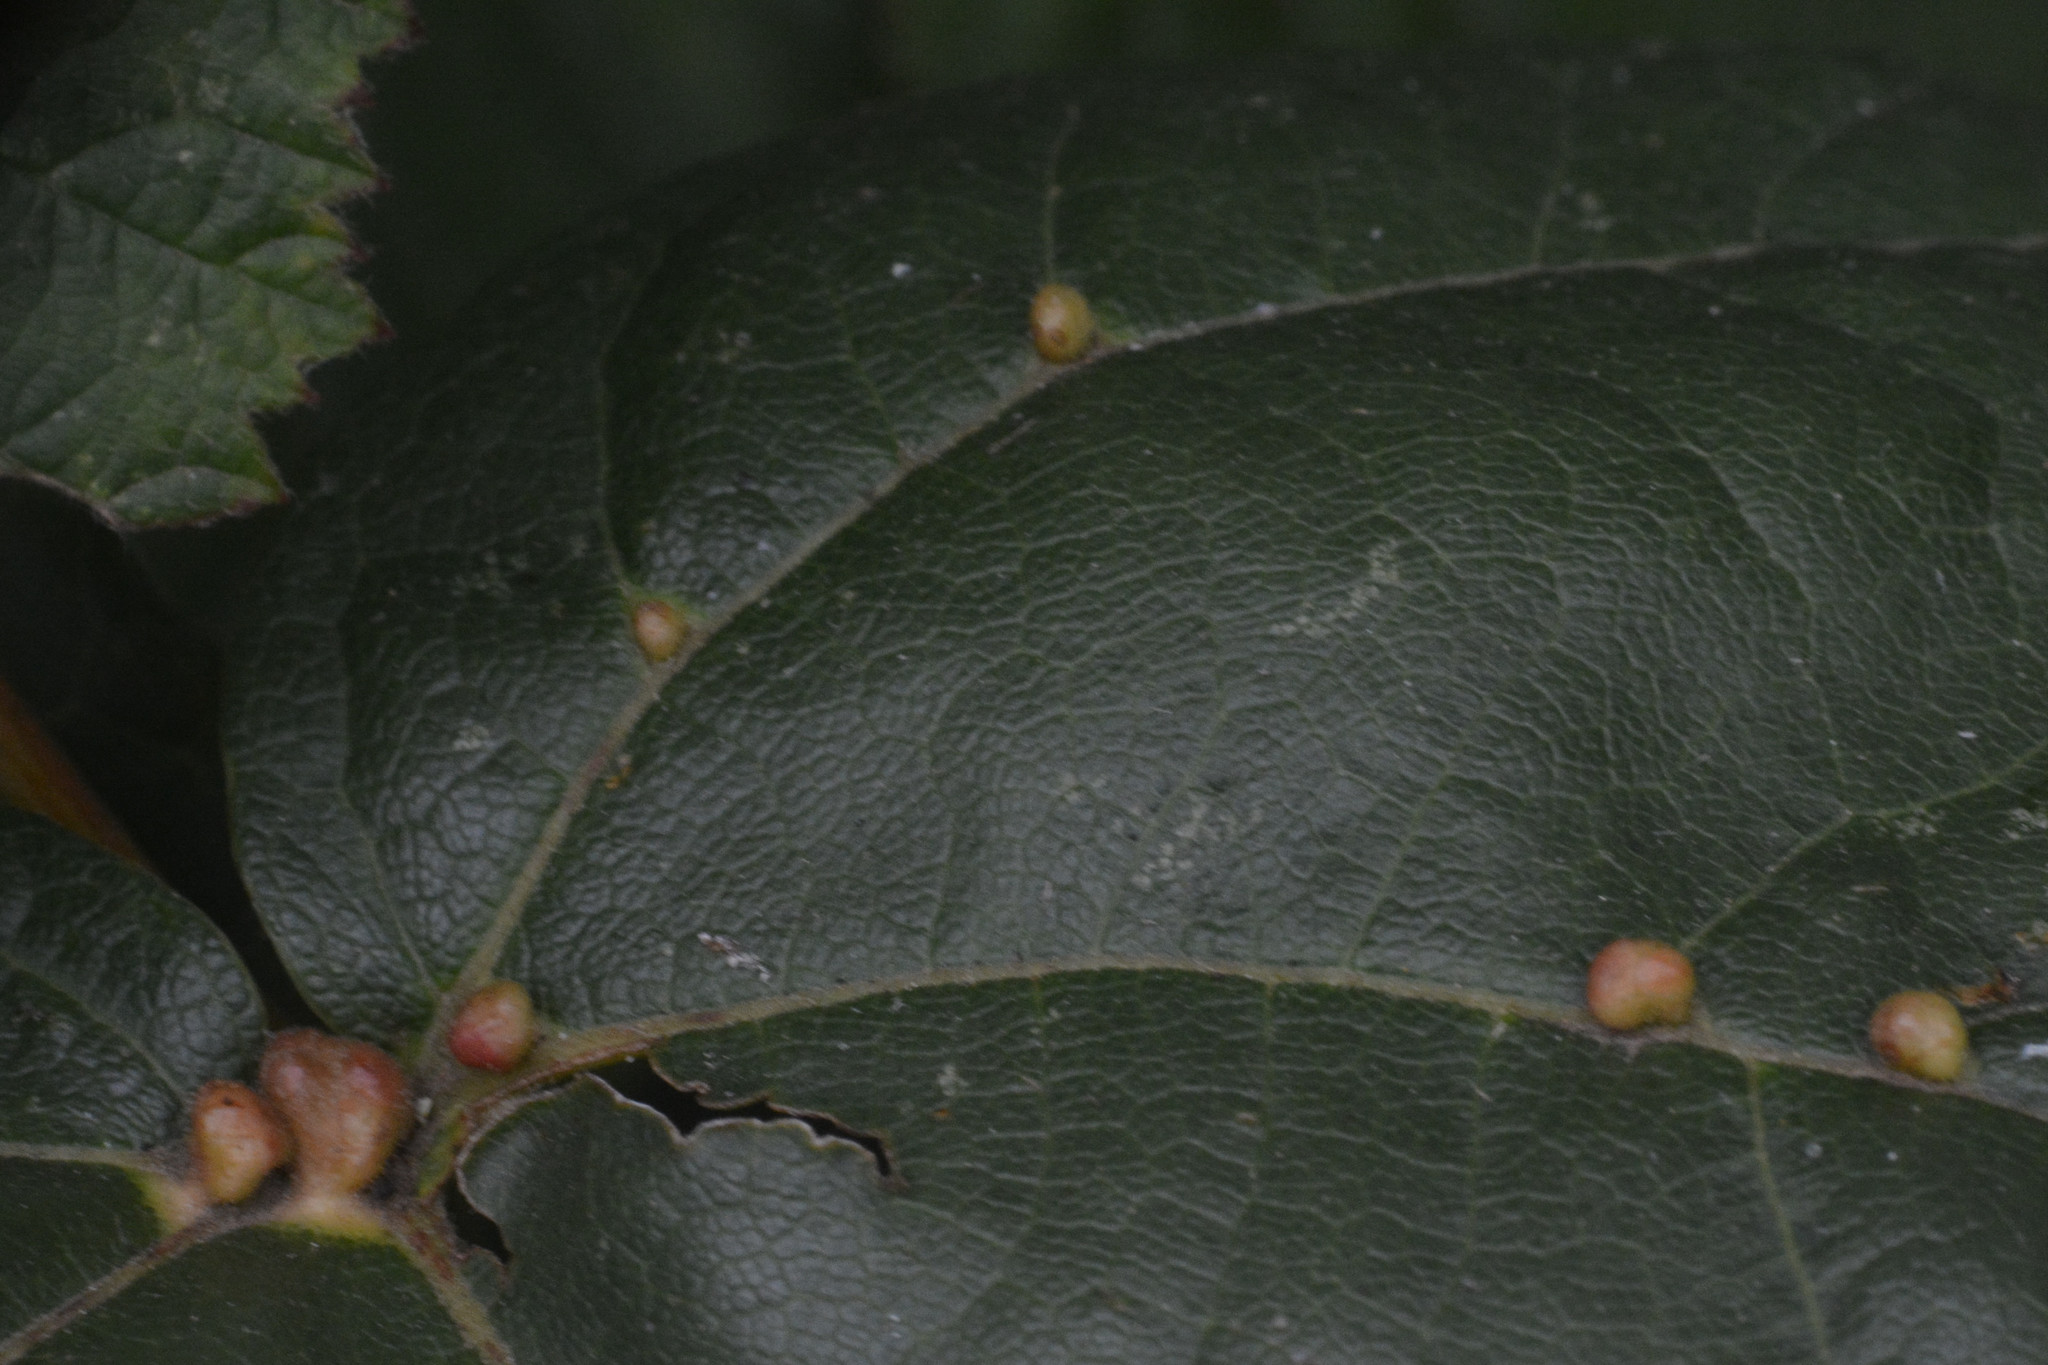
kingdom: Animalia
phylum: Arthropoda
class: Arachnida
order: Trombidiformes
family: Eriophyidae
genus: Aceria
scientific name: Aceria macrochelus
